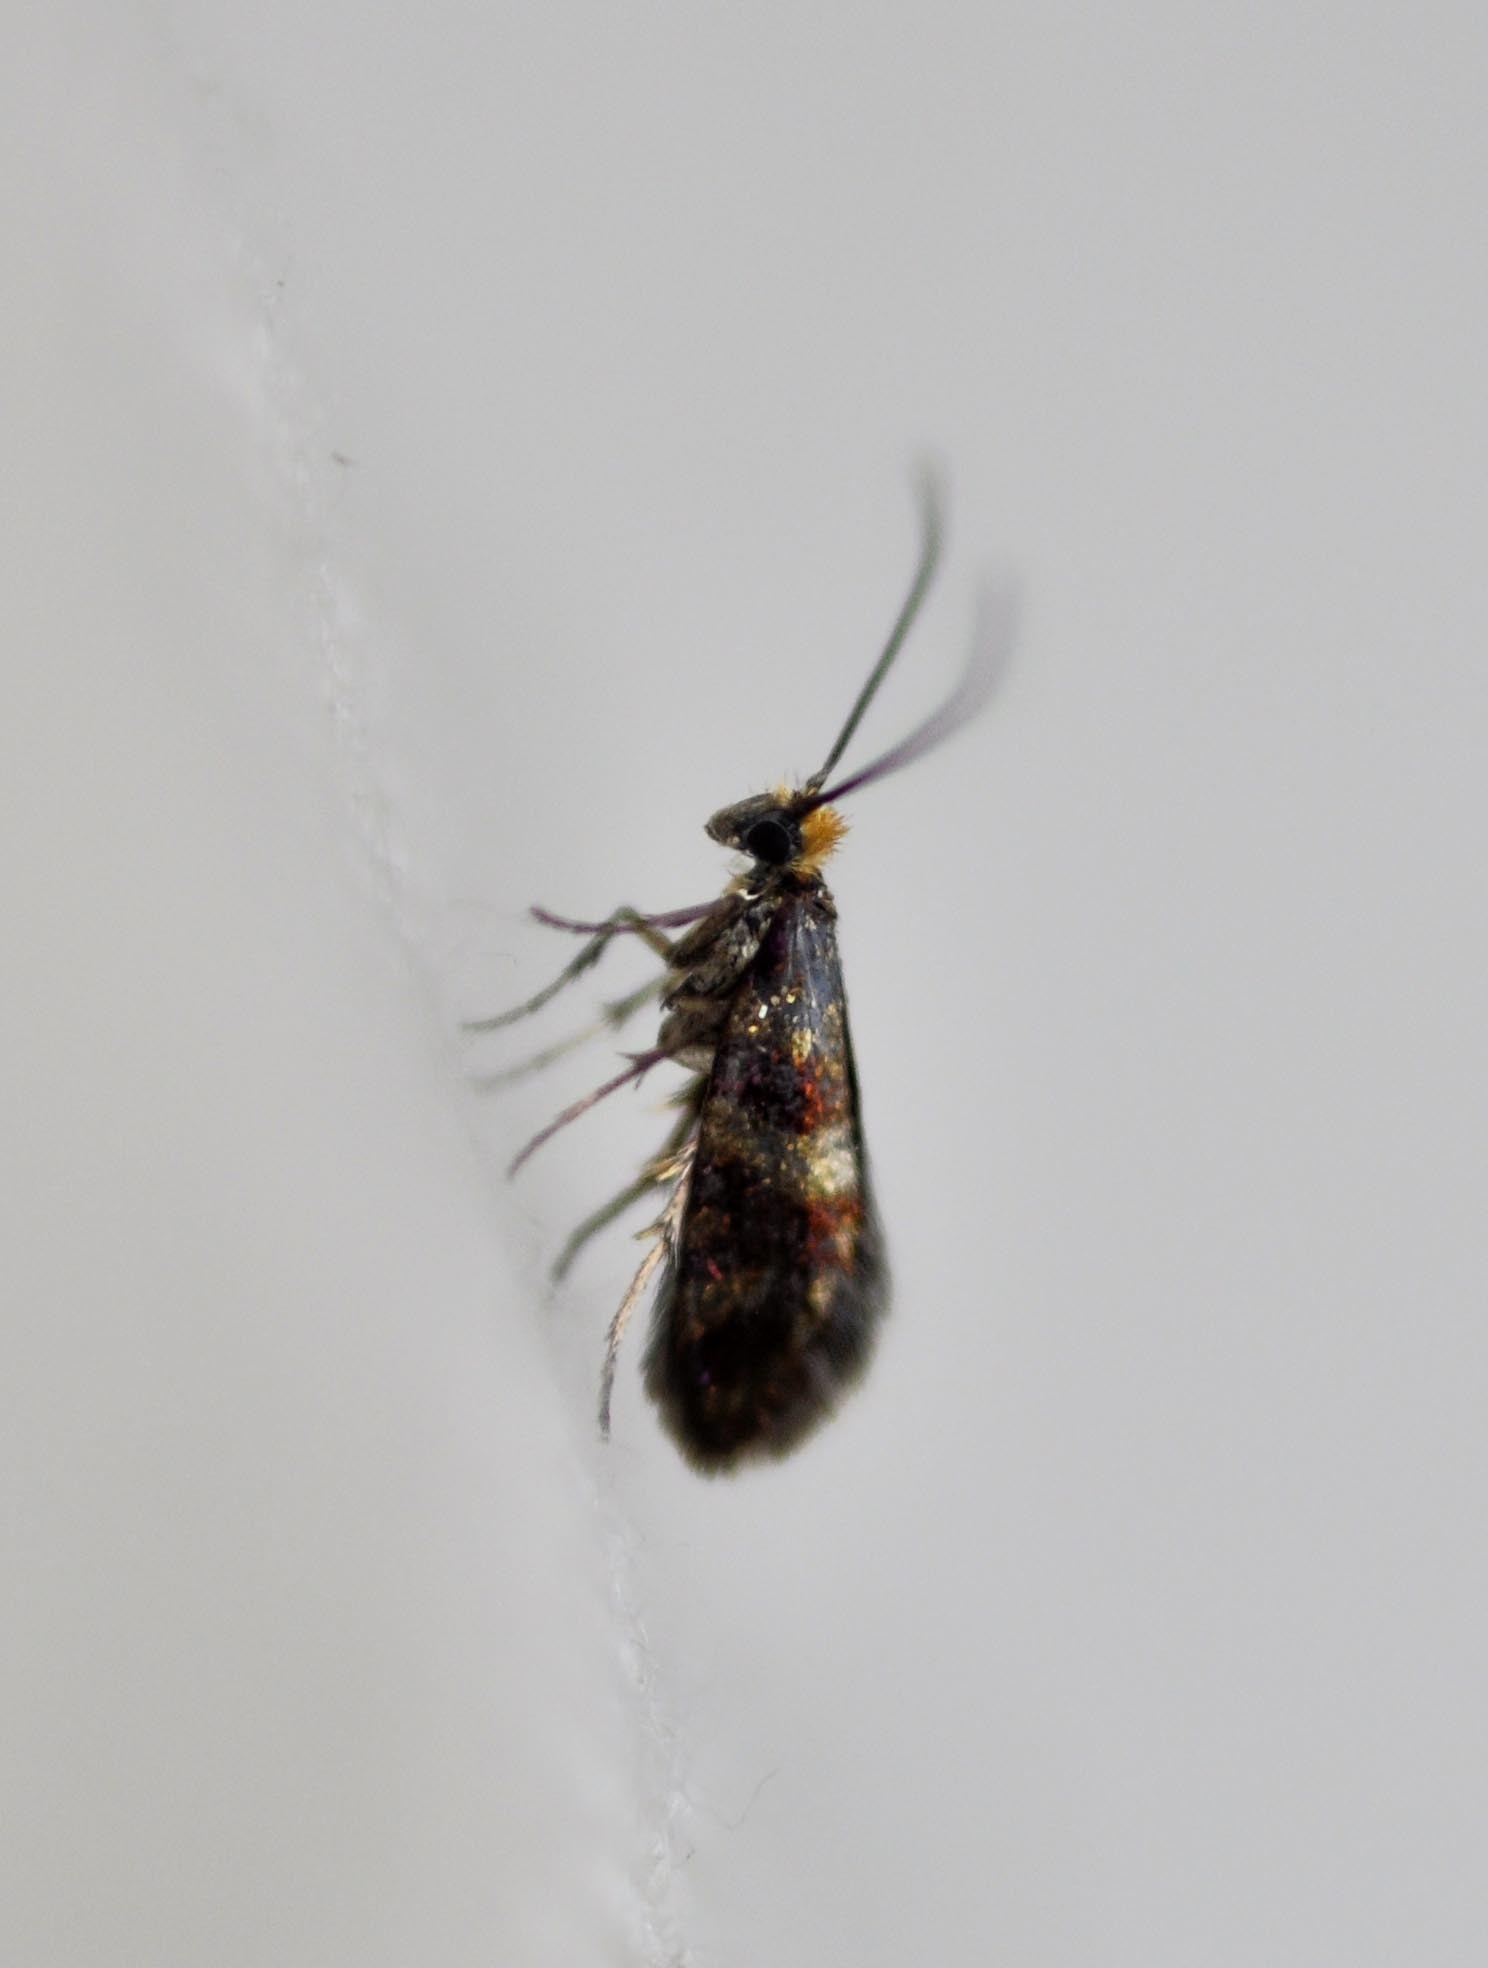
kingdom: Animalia
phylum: Arthropoda
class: Insecta
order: Lepidoptera
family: Micropterigidae
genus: Micropterix
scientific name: Micropterix tunbergella
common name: Red-barred gold
